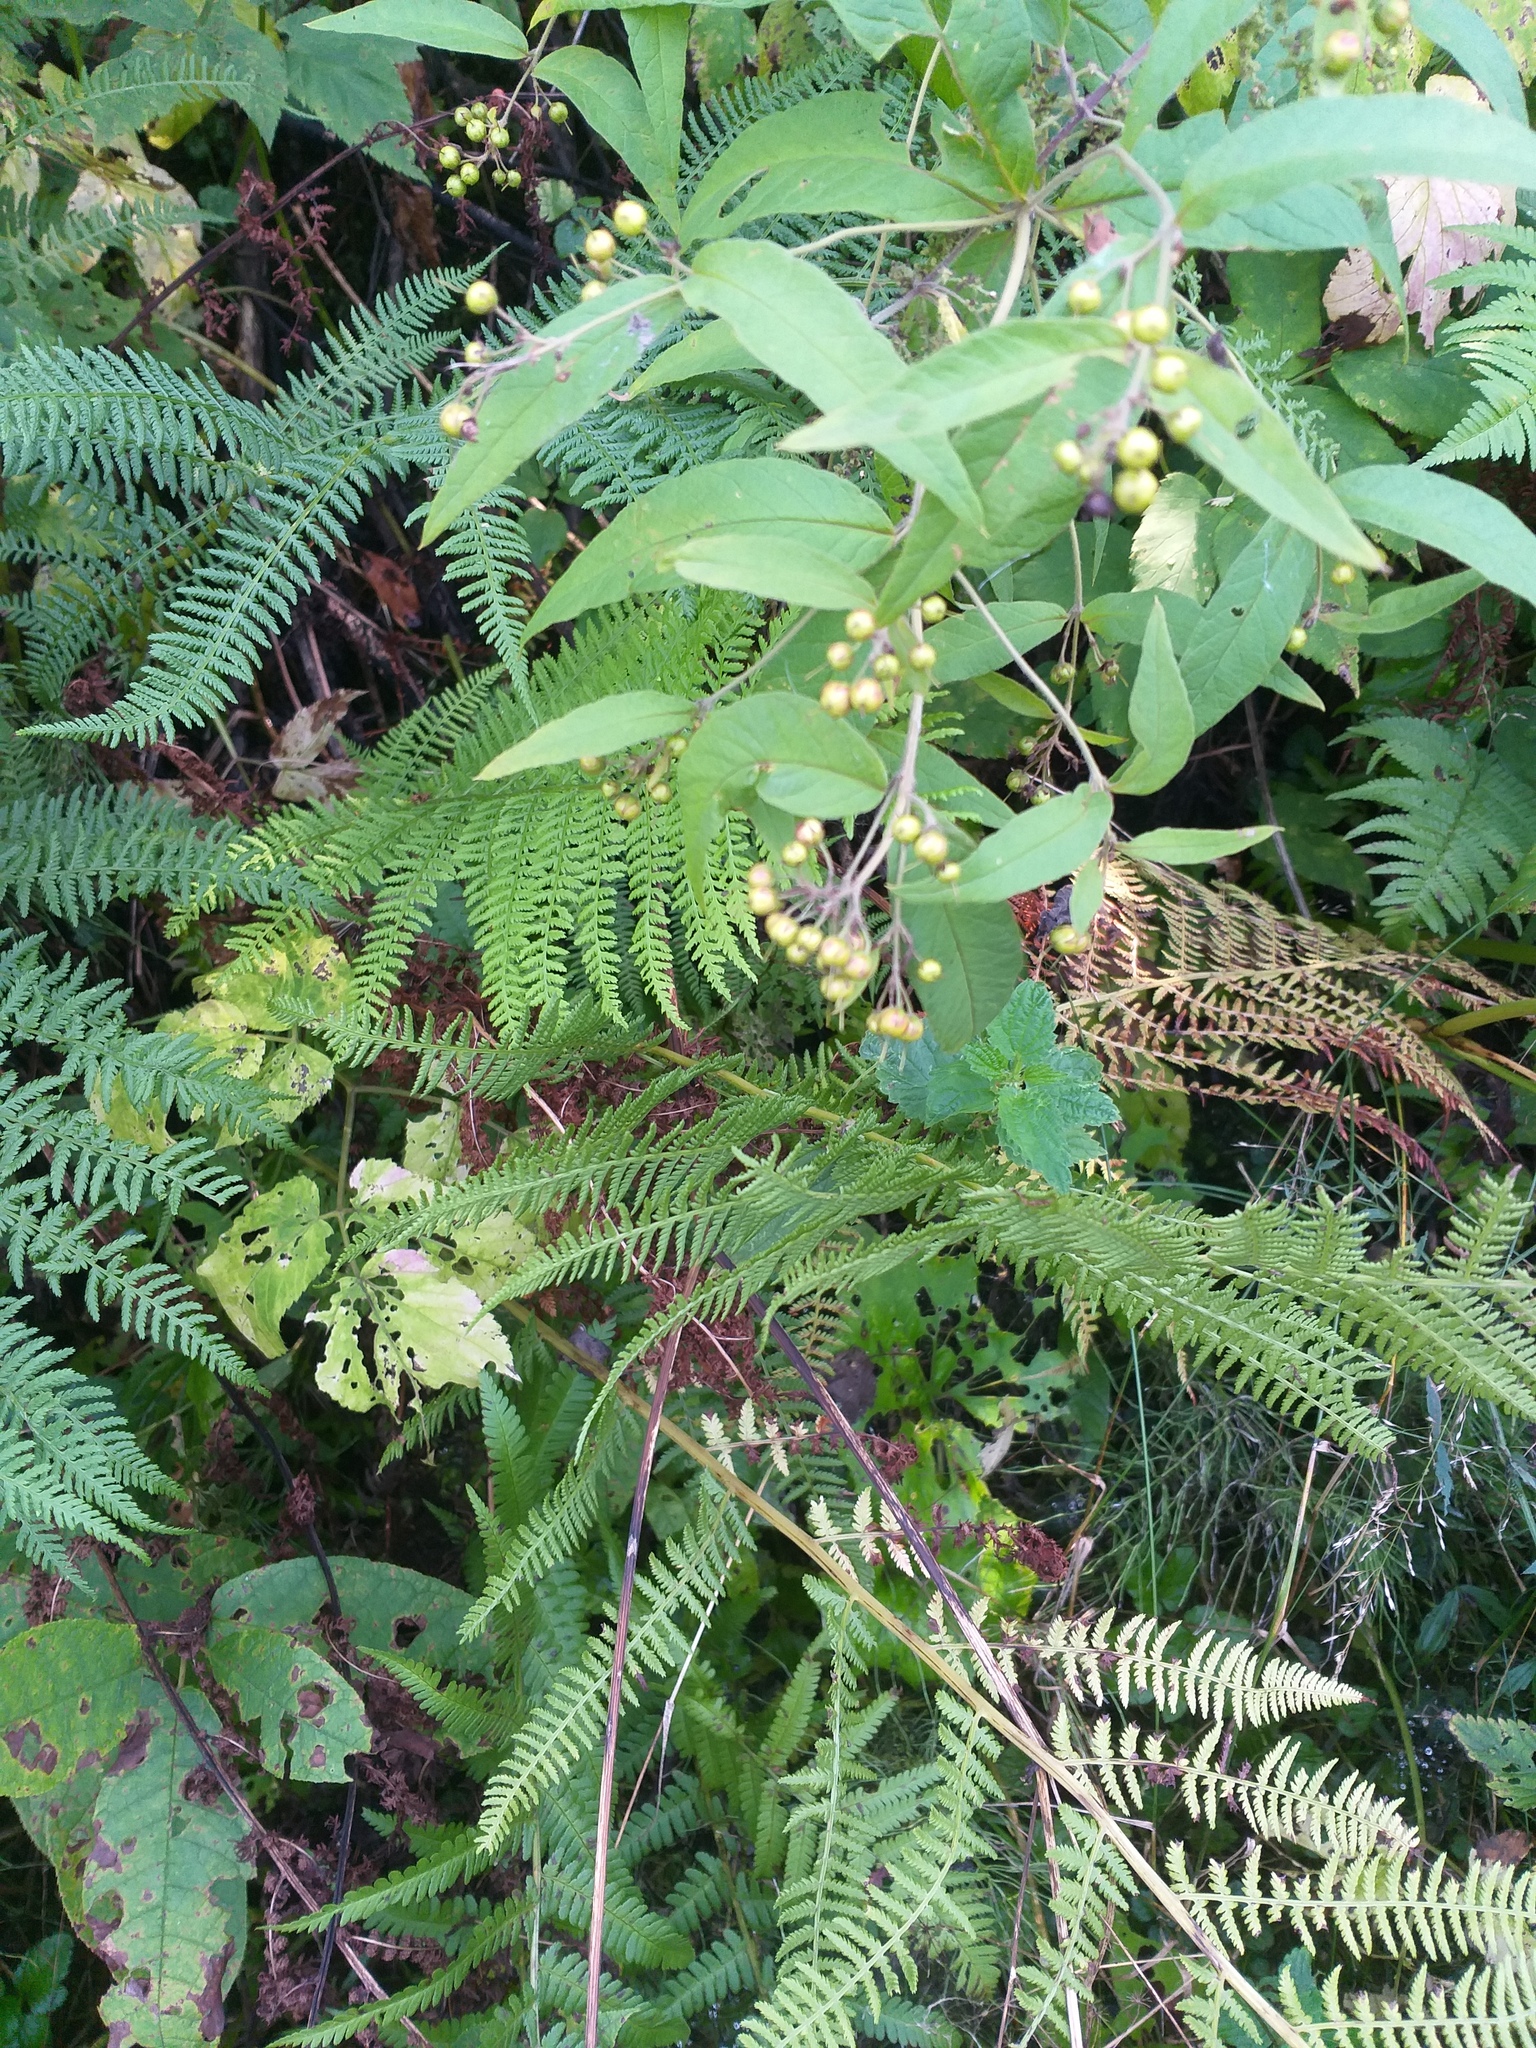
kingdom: Plantae
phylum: Tracheophyta
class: Polypodiopsida
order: Polypodiales
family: Athyriaceae
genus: Athyrium
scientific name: Athyrium filix-femina
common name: Lady fern
